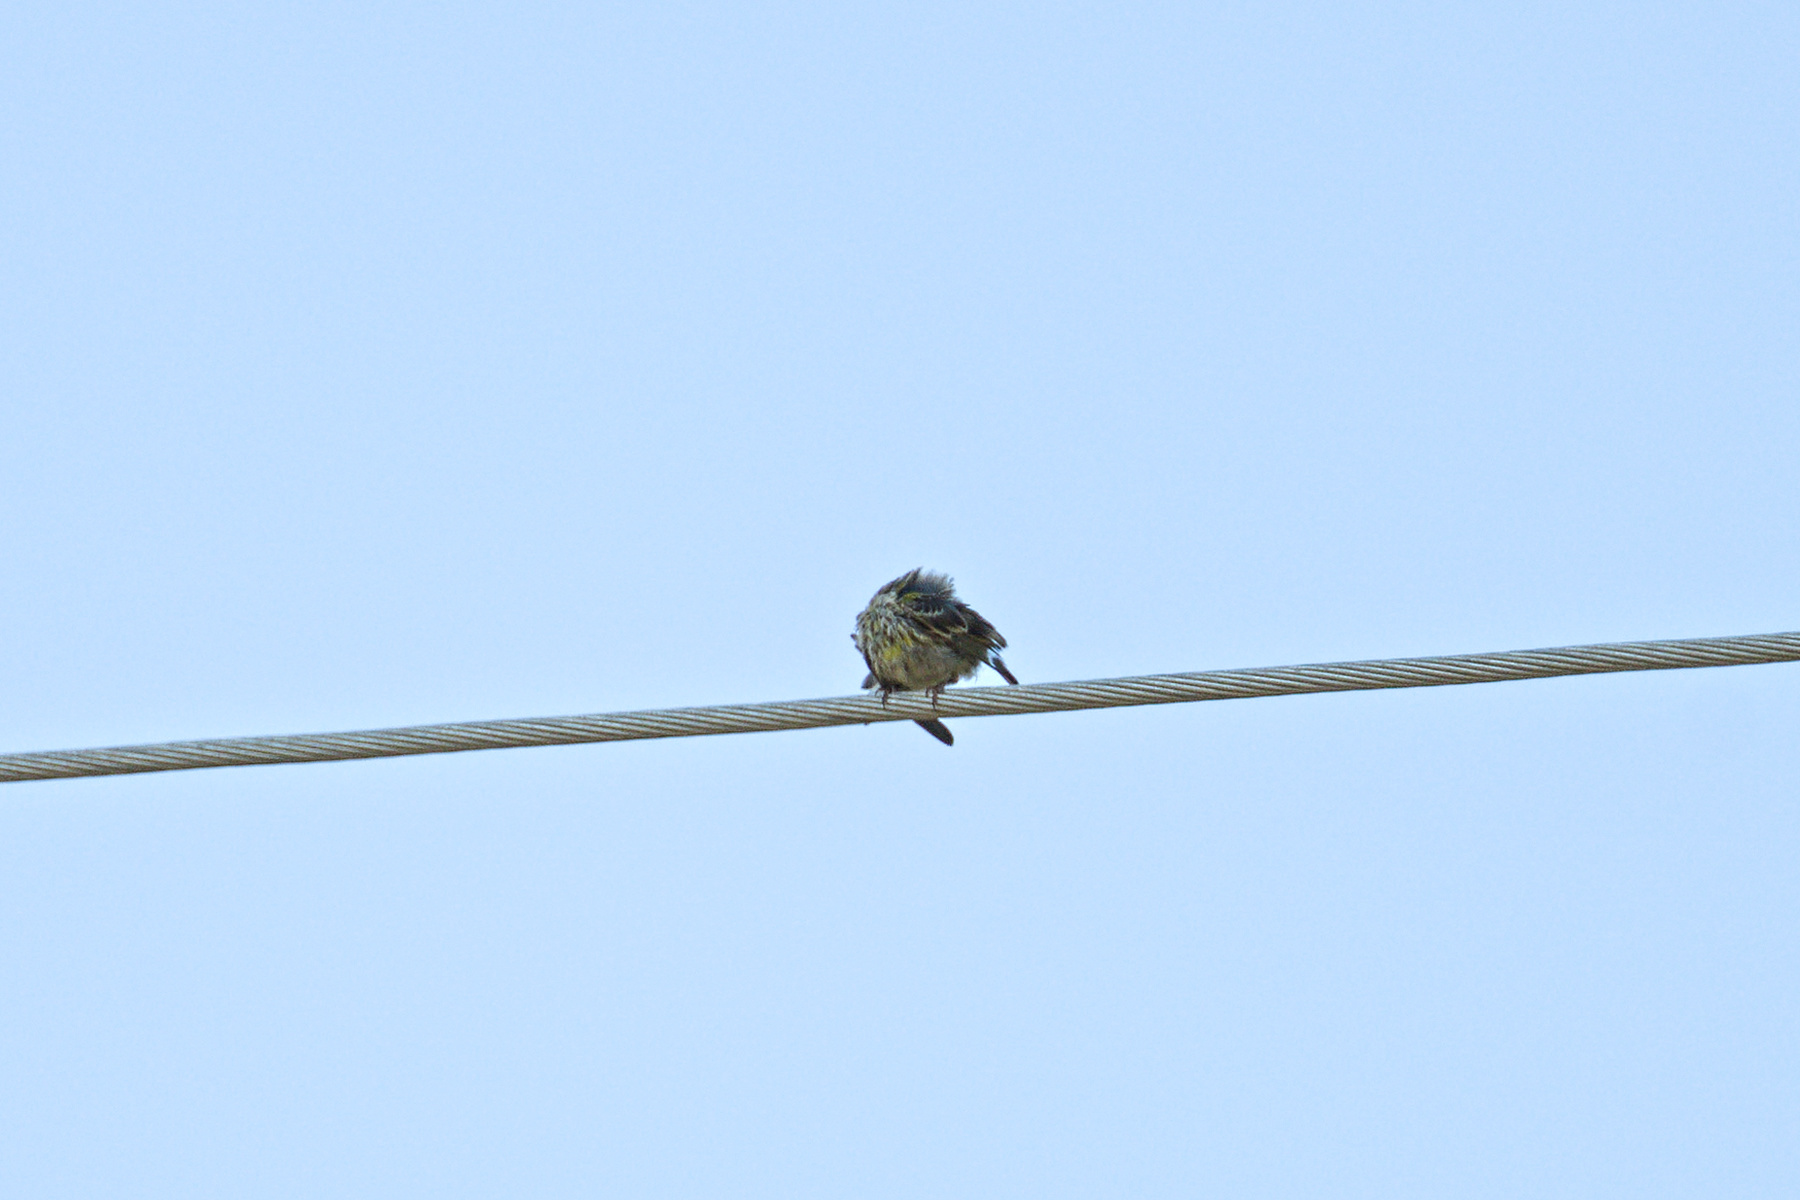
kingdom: Animalia
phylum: Chordata
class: Aves
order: Passeriformes
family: Fringillidae
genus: Serinus
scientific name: Serinus serinus
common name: European serin
